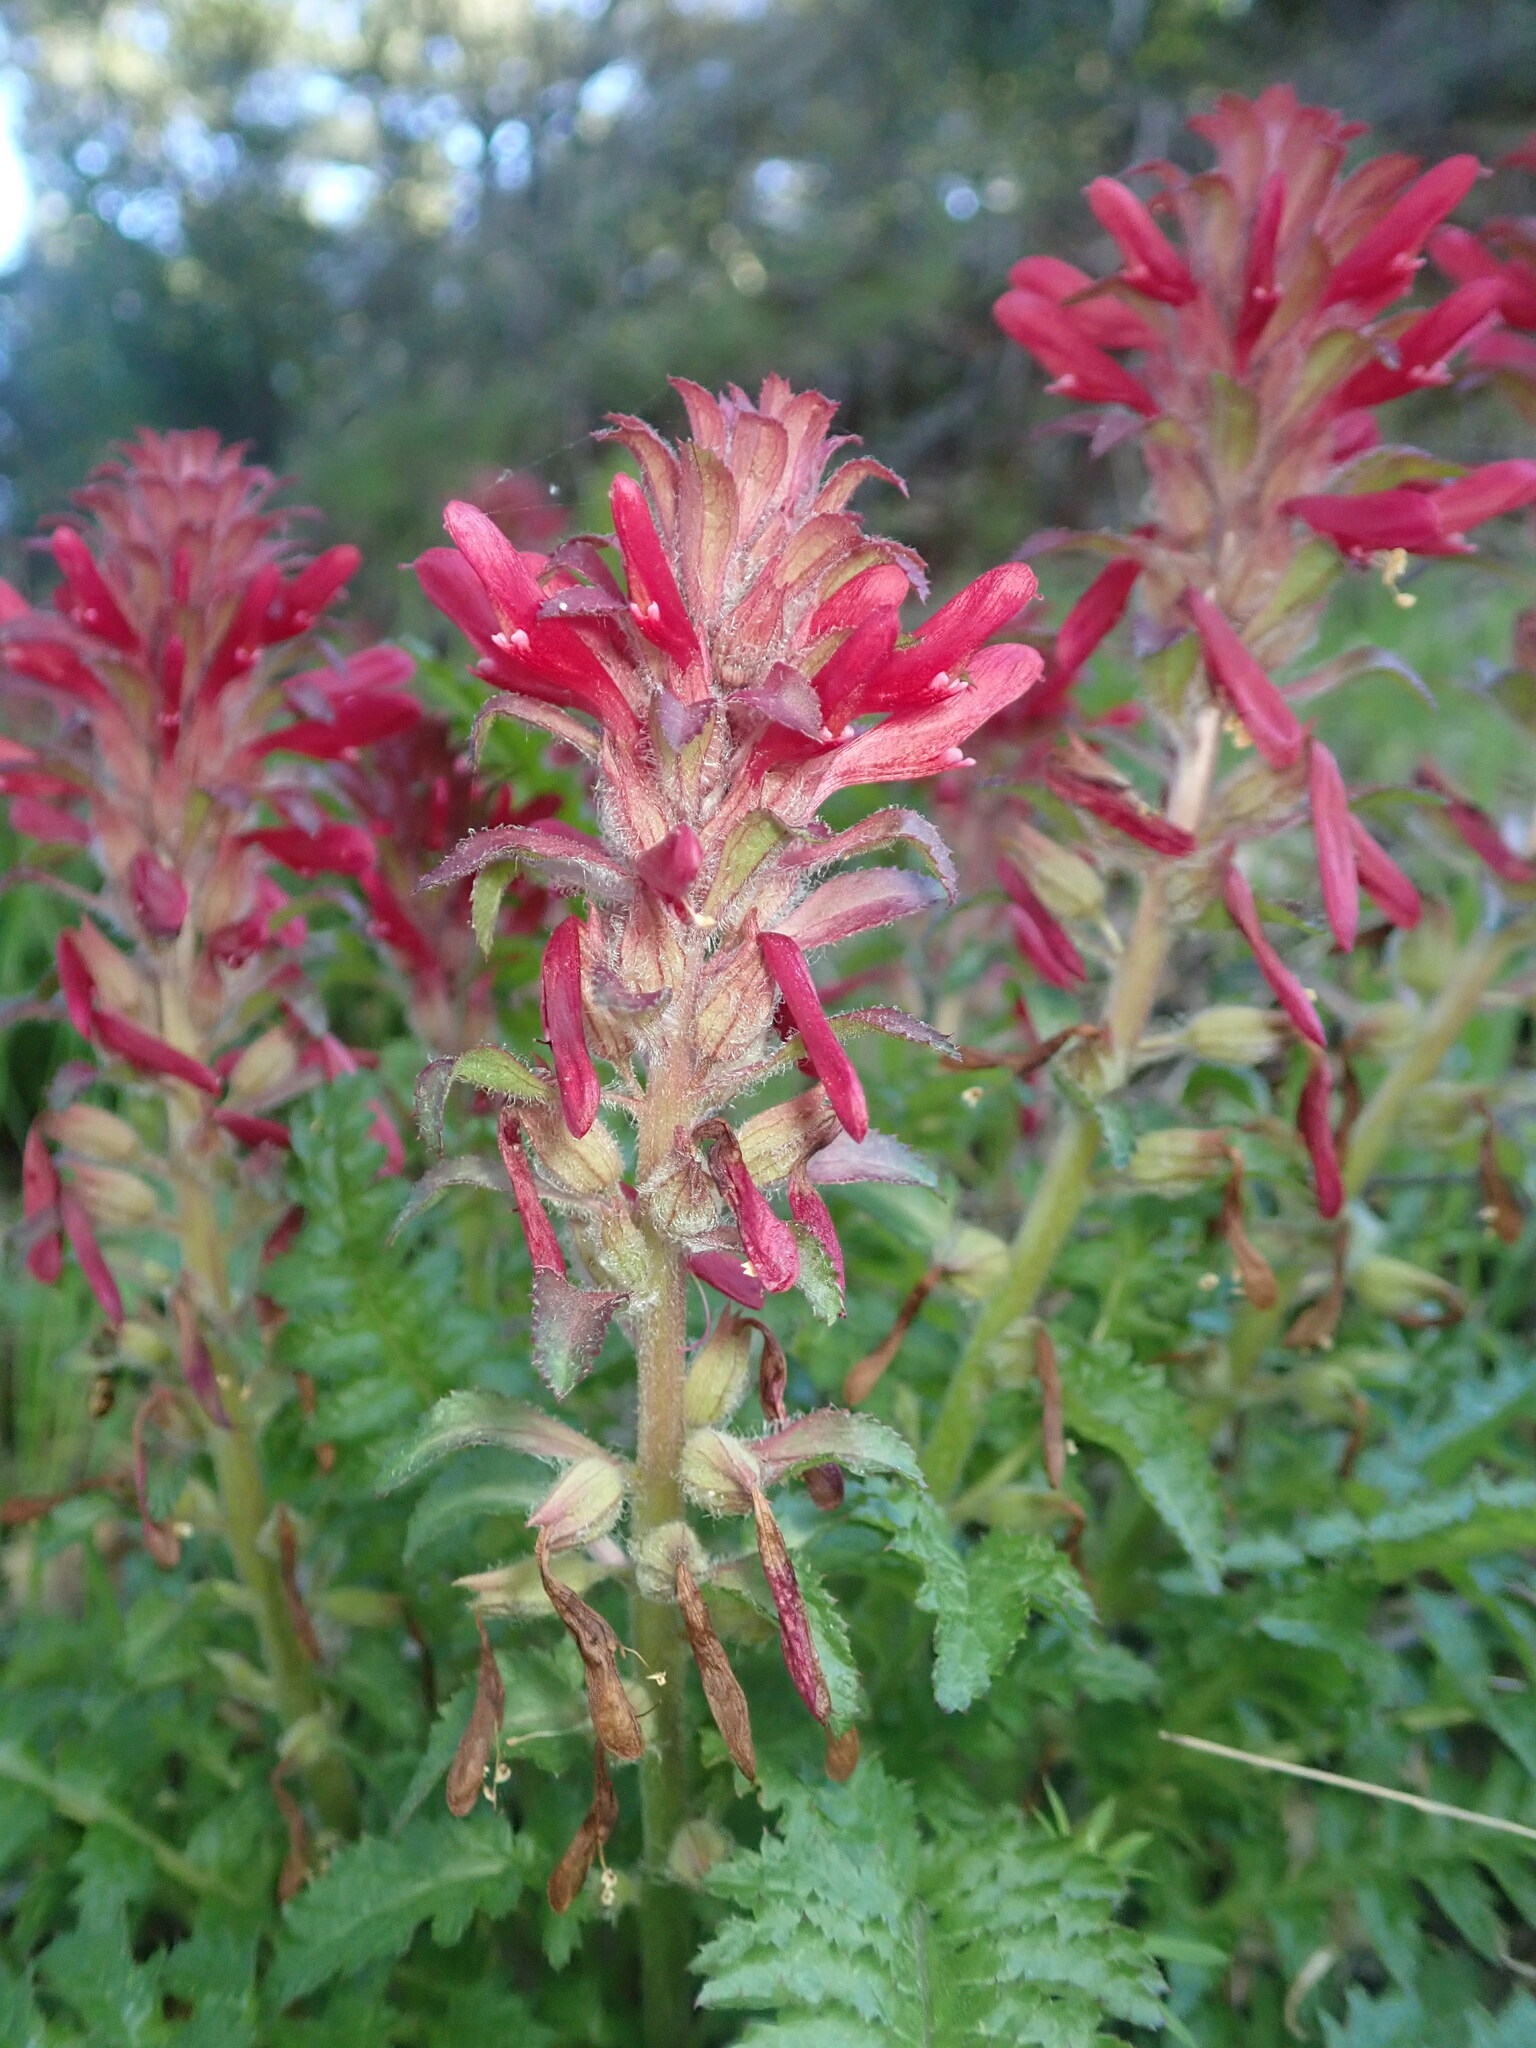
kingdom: Plantae
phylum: Tracheophyta
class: Magnoliopsida
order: Lamiales
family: Orobanchaceae
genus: Pedicularis
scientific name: Pedicularis densiflora
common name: Indian warrior
